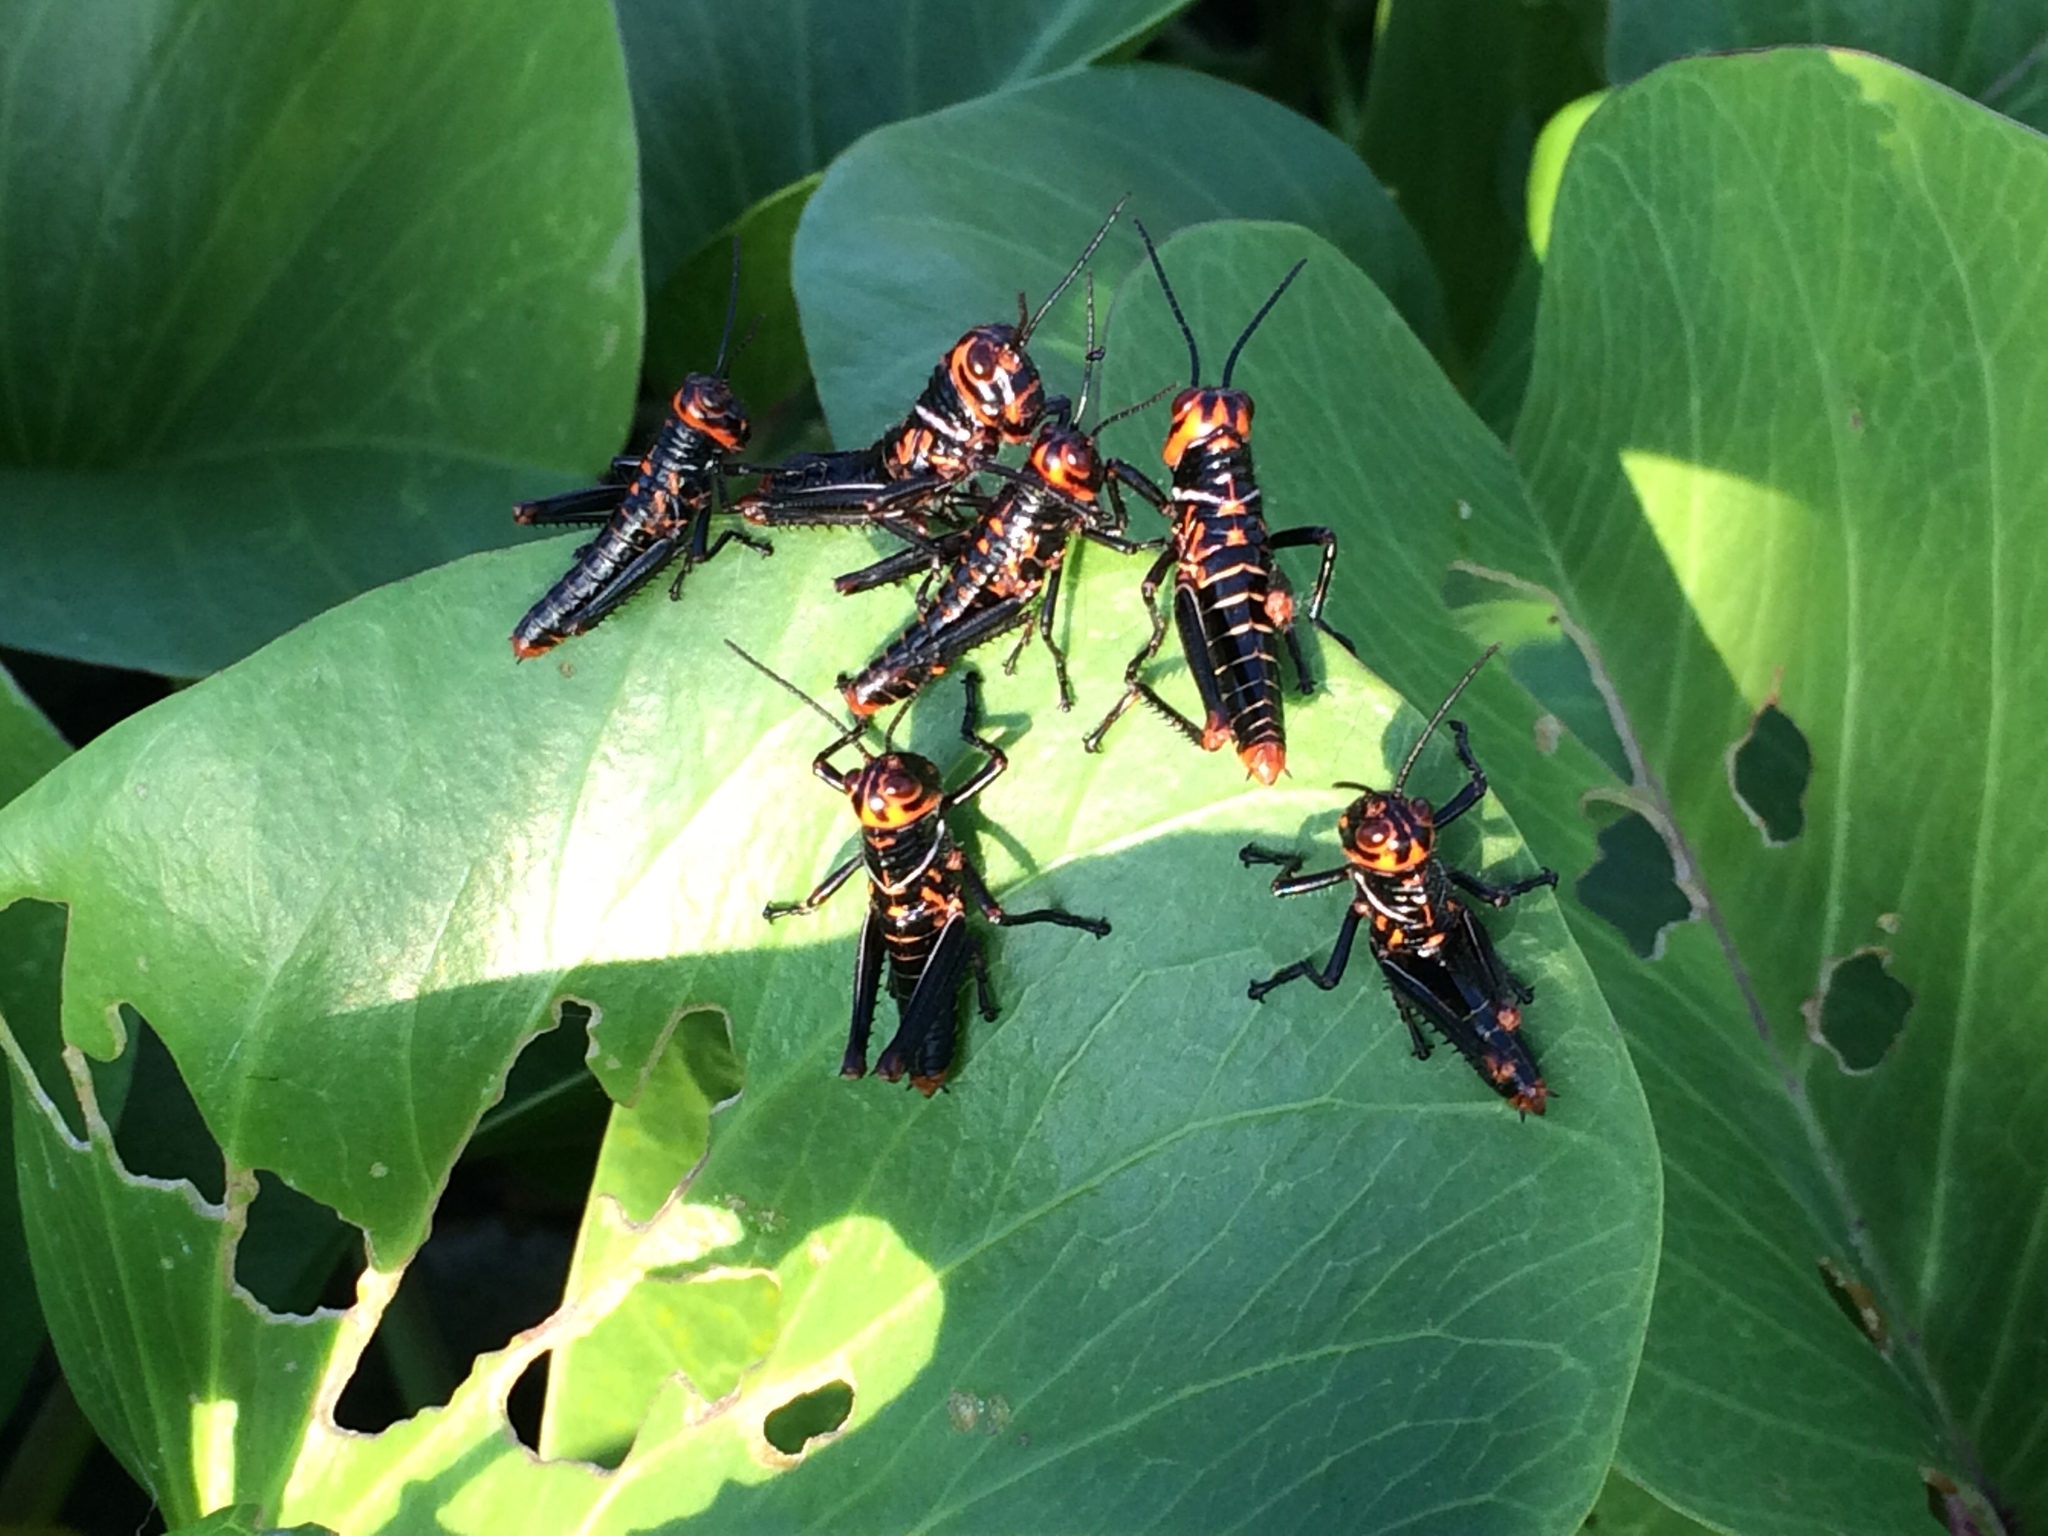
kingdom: Animalia
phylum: Arthropoda
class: Insecta
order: Orthoptera
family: Romaleidae
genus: Tropidacris
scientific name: Tropidacris collaris
